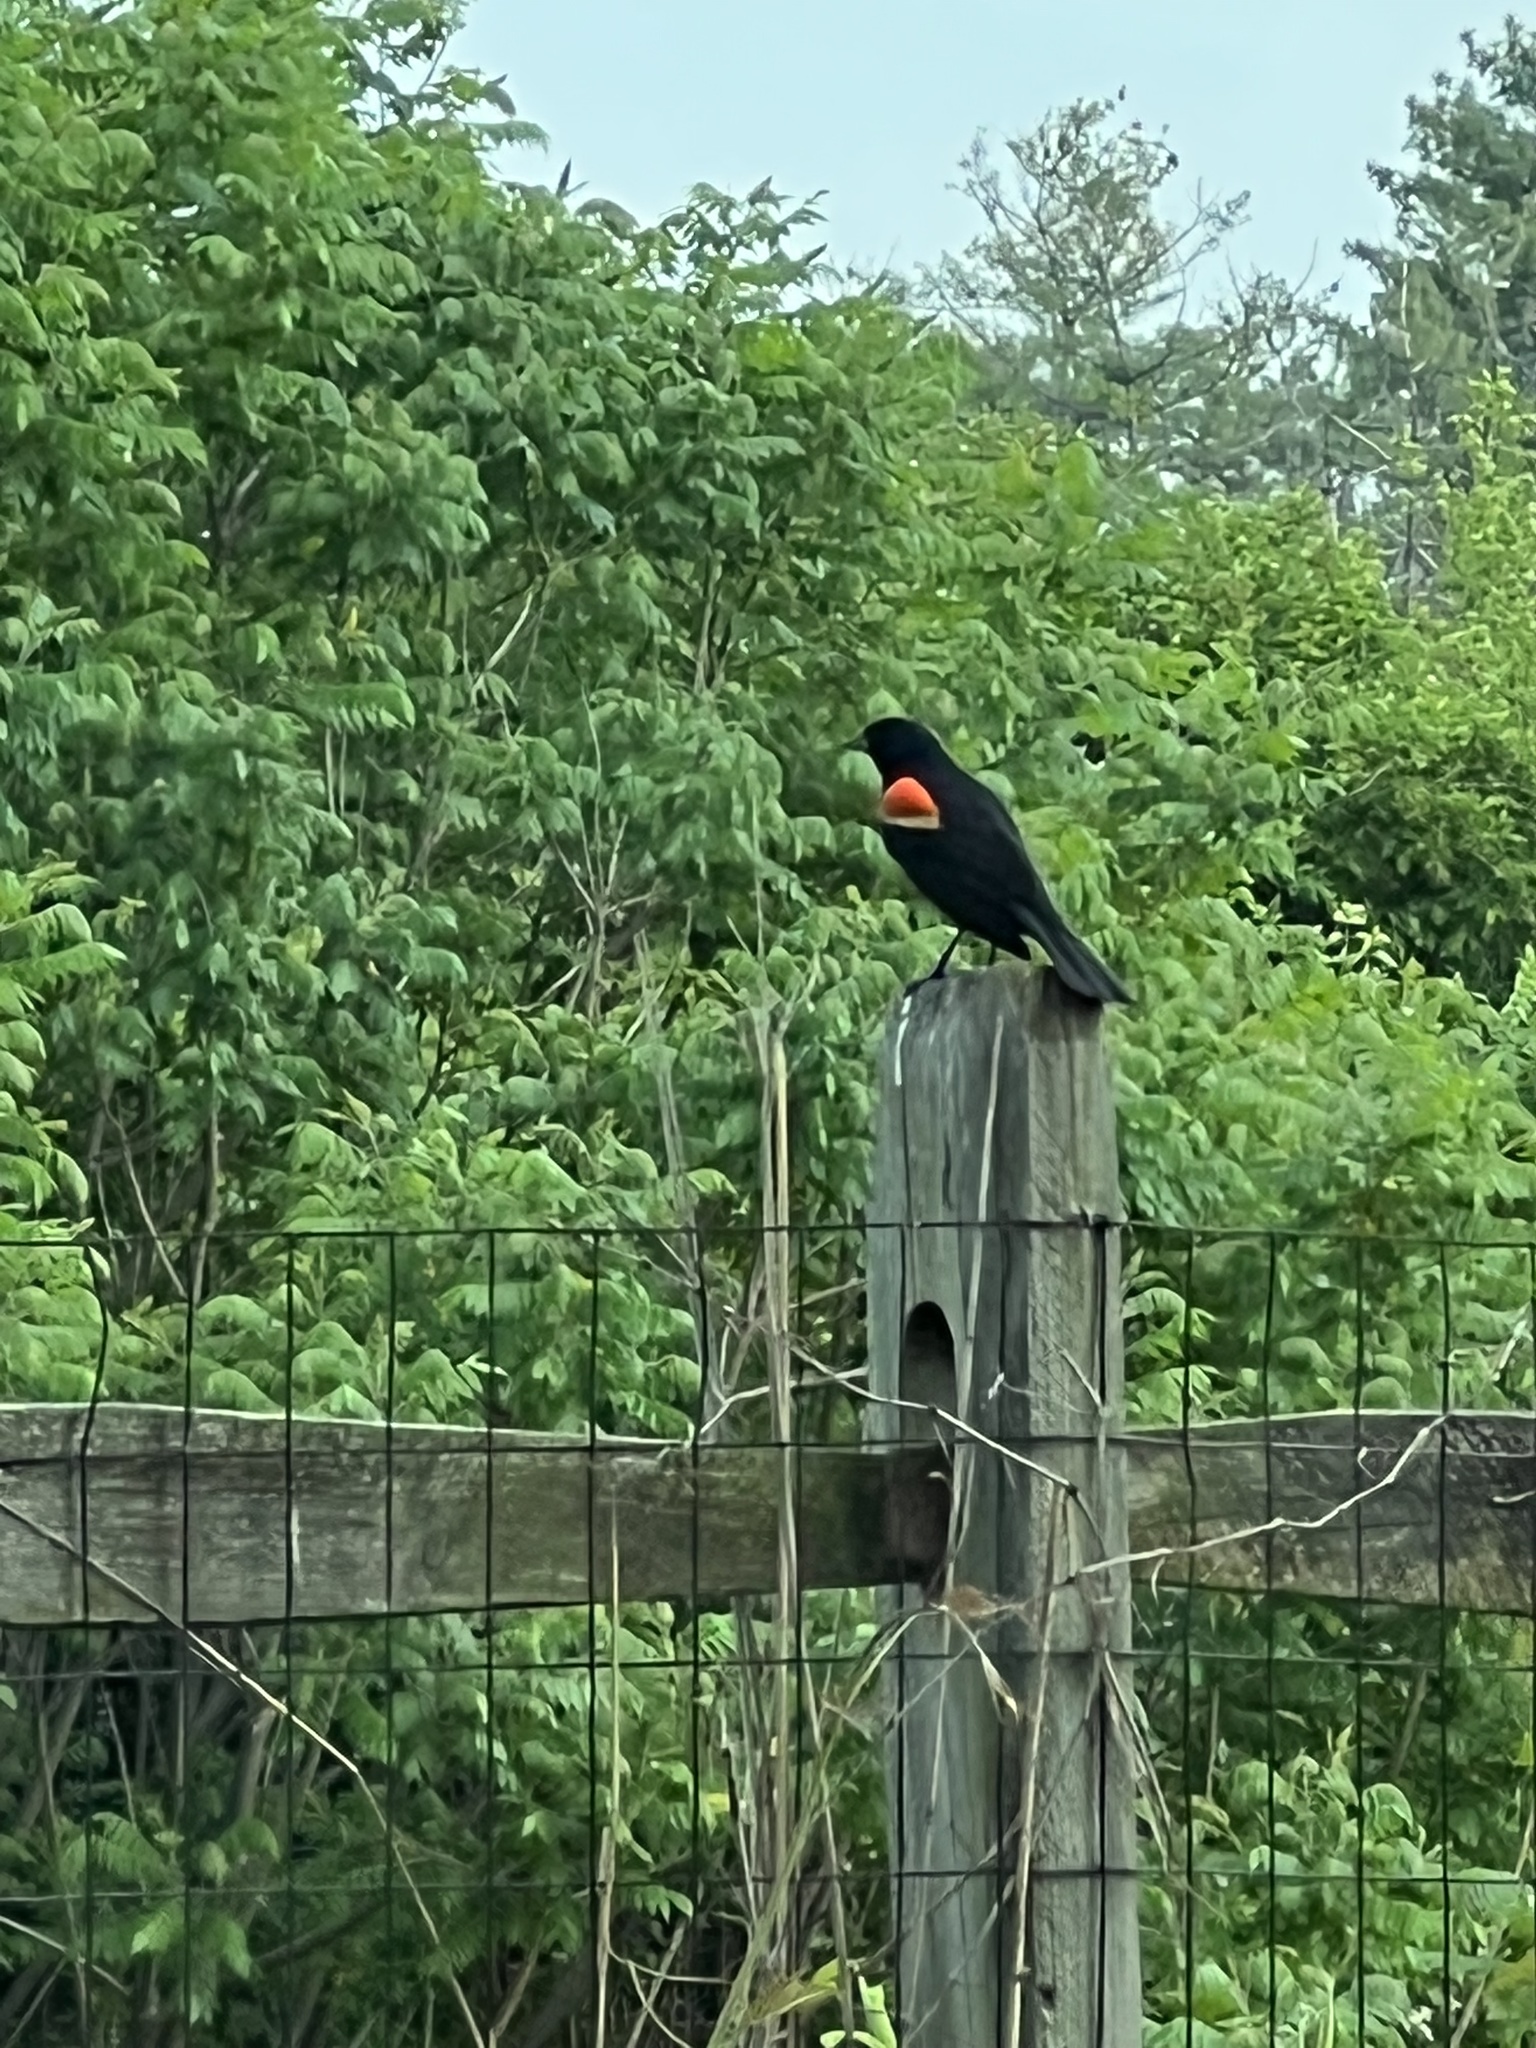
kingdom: Animalia
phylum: Chordata
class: Aves
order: Passeriformes
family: Icteridae
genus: Agelaius
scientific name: Agelaius phoeniceus
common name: Red-winged blackbird
